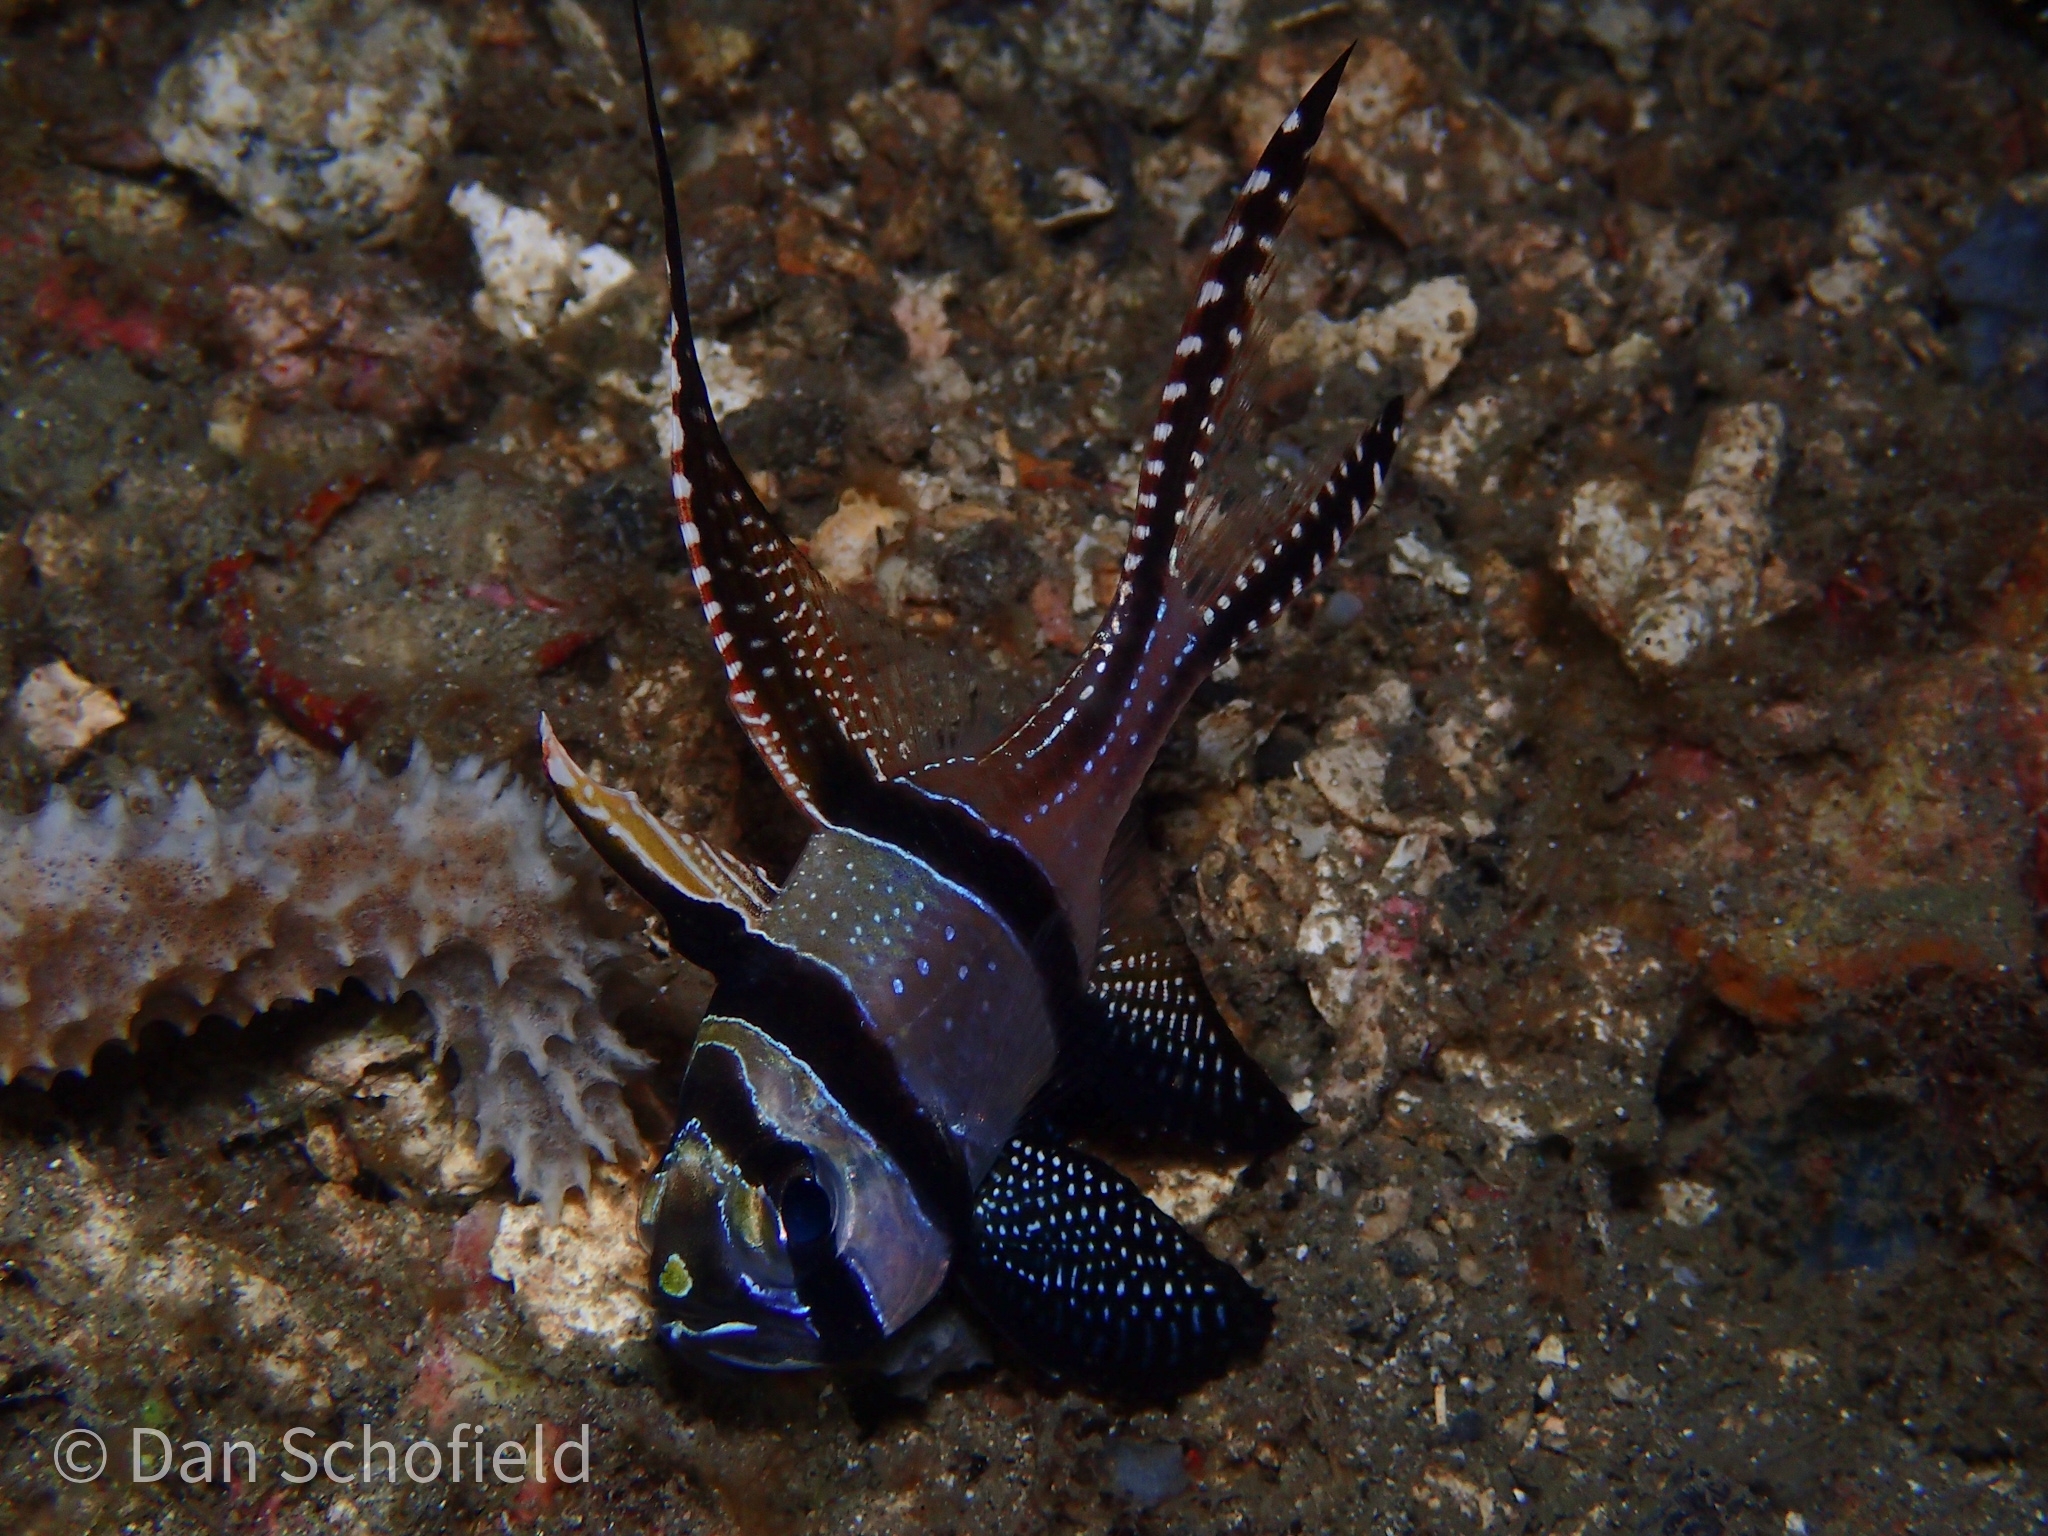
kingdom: Animalia
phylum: Chordata
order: Perciformes
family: Apogonidae
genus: Pterapogon
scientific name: Pterapogon kauderni
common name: Banggai cardinalfish
